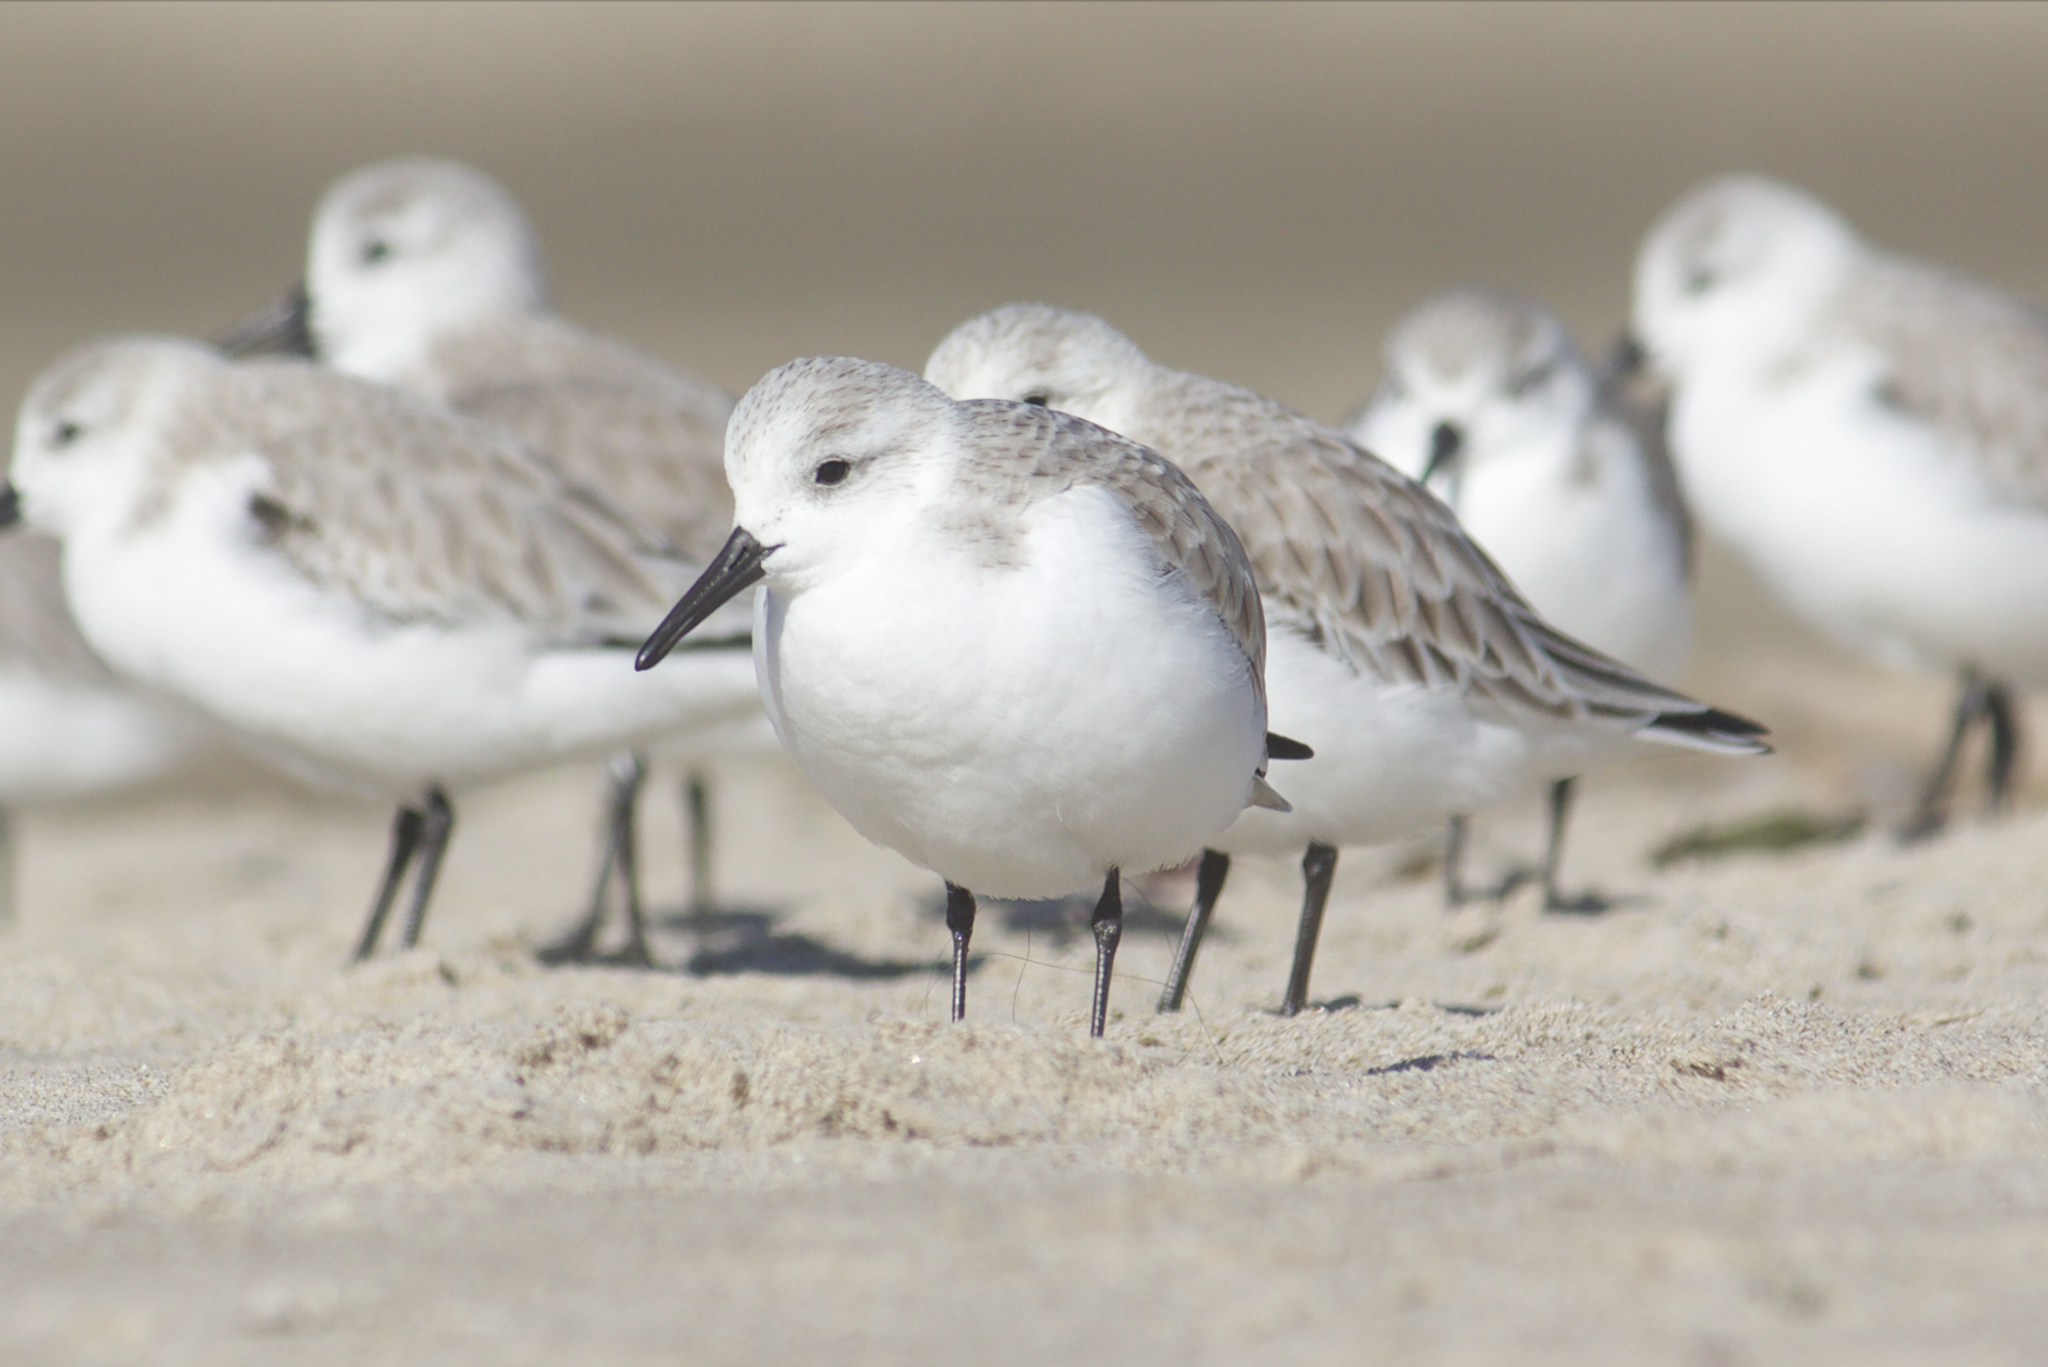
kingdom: Animalia
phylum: Chordata
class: Aves
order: Charadriiformes
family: Scolopacidae
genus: Calidris
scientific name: Calidris alba
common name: Sanderling
